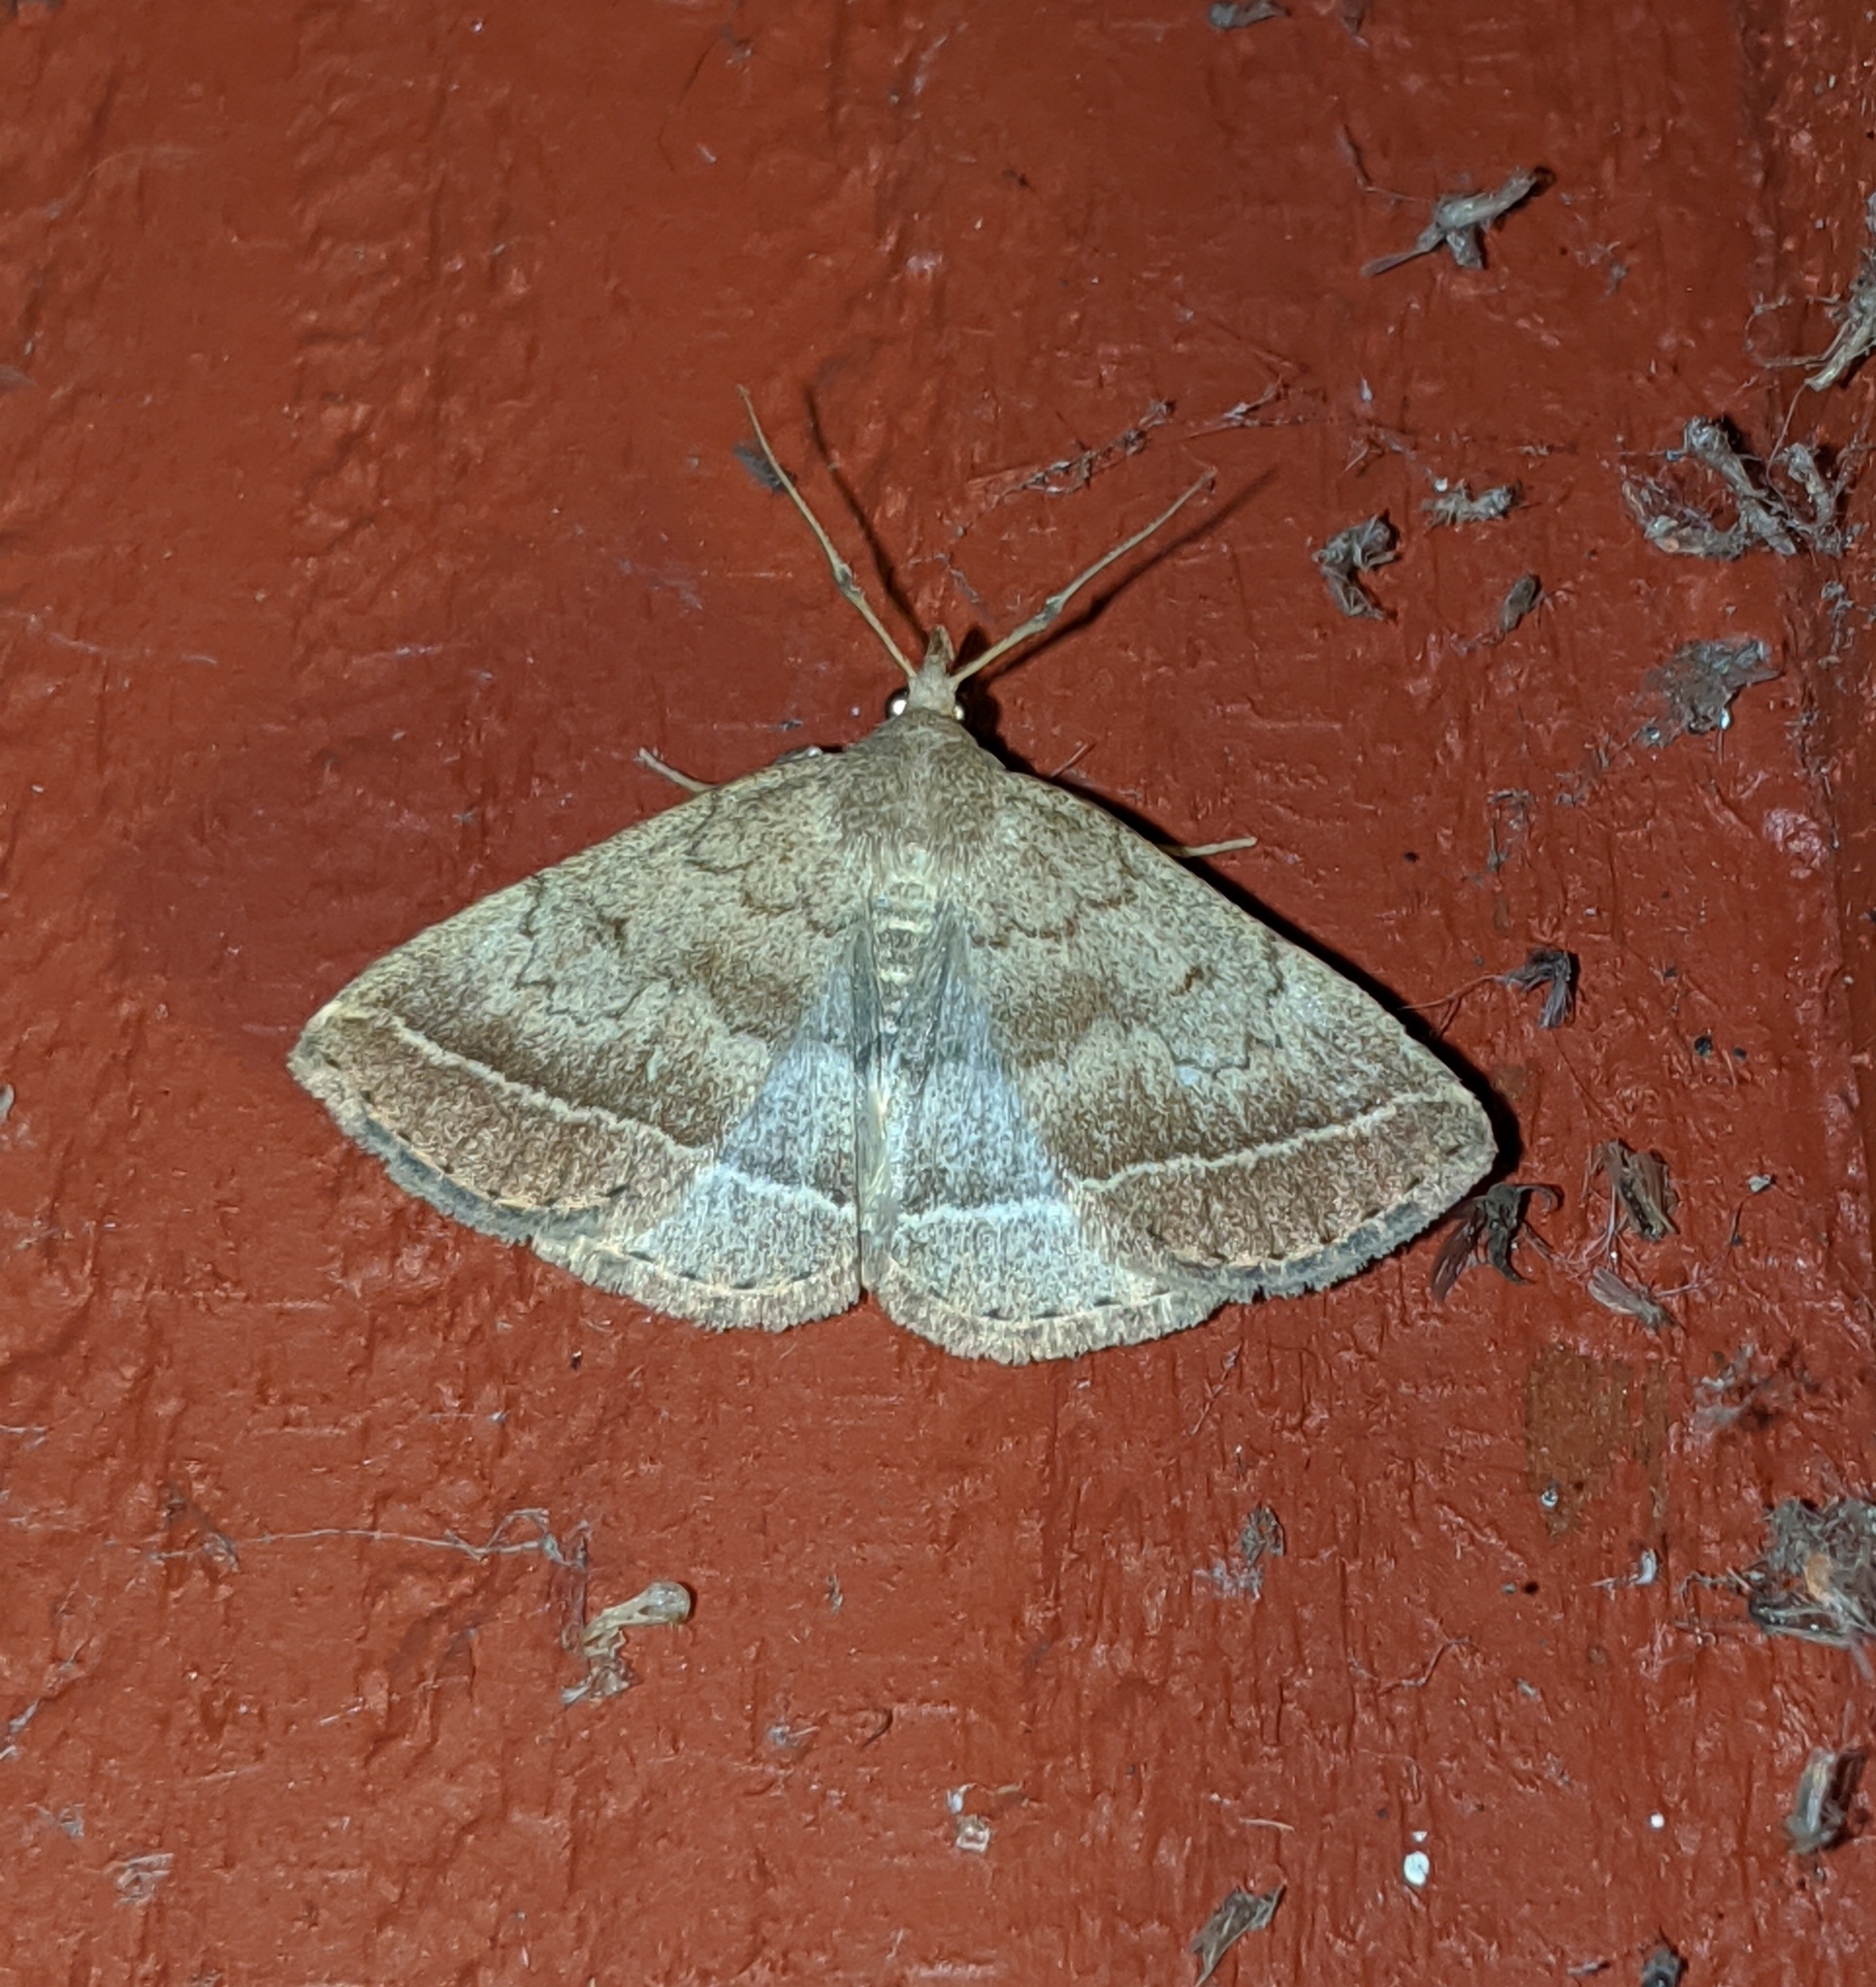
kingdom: Animalia
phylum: Arthropoda
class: Insecta
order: Lepidoptera
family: Erebidae
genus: Zanclognatha
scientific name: Zanclognatha jacchusalis
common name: Yellowish zanclognatha
